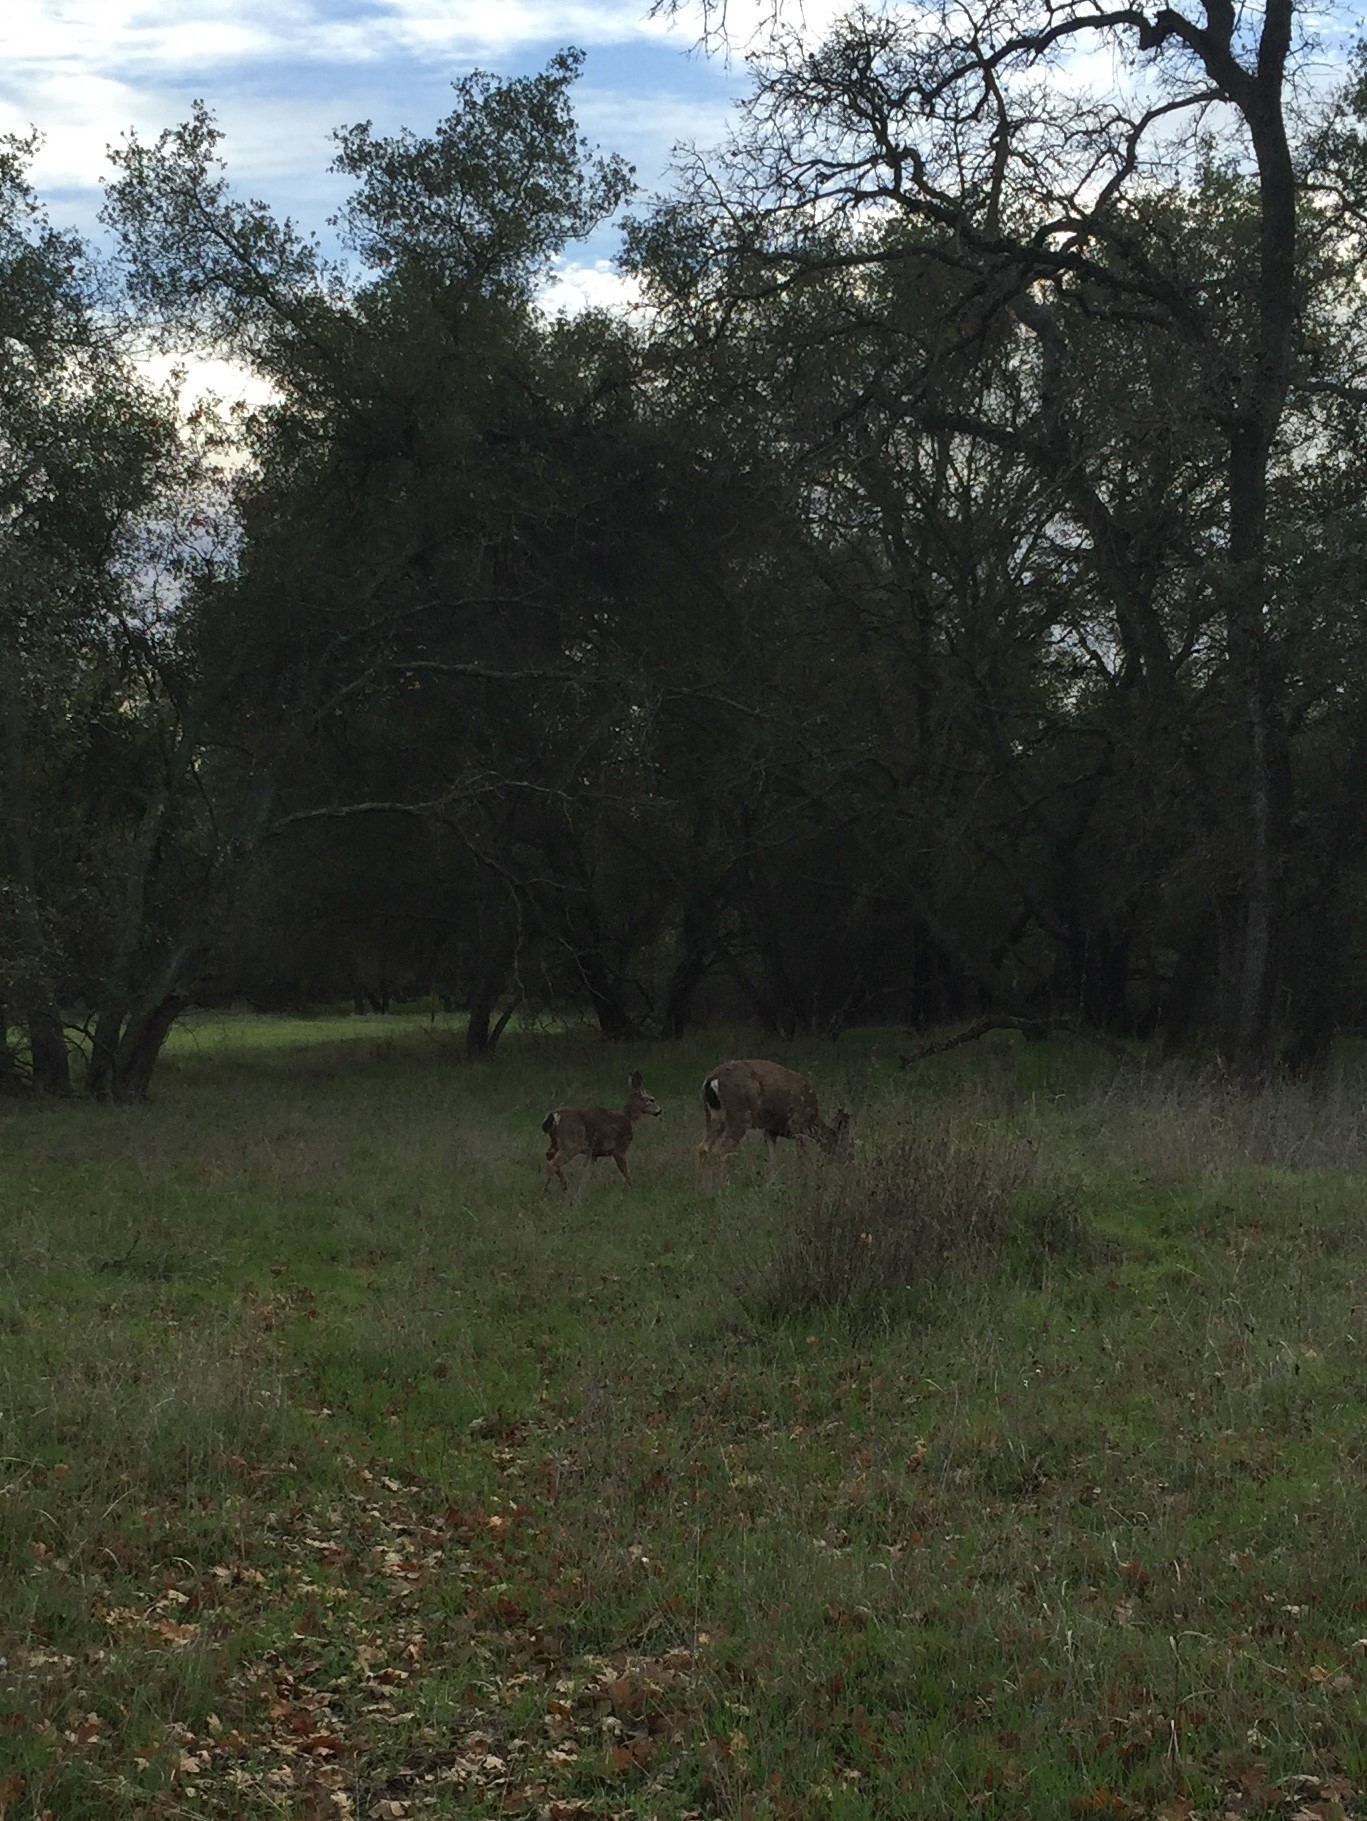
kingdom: Animalia
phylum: Chordata
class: Mammalia
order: Artiodactyla
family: Cervidae
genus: Odocoileus
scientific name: Odocoileus hemionus
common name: Mule deer
